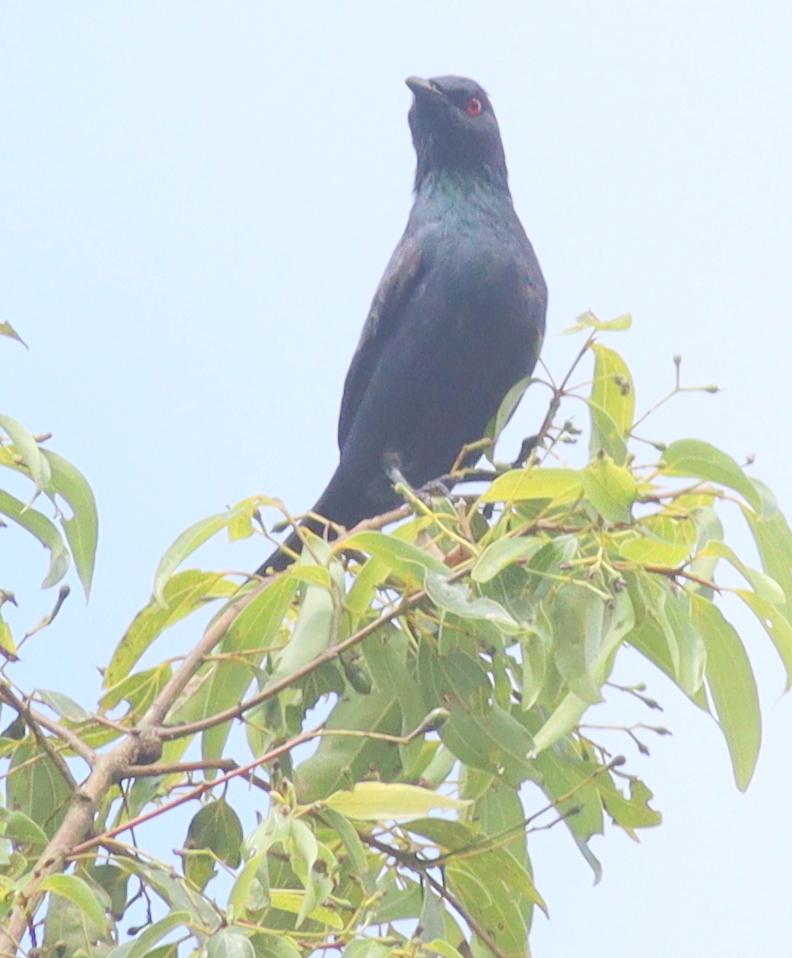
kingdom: Animalia
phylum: Chordata
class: Aves
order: Passeriformes
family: Sturnidae
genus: Aplonis
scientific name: Aplonis panayensis
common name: Asian glossy starling
